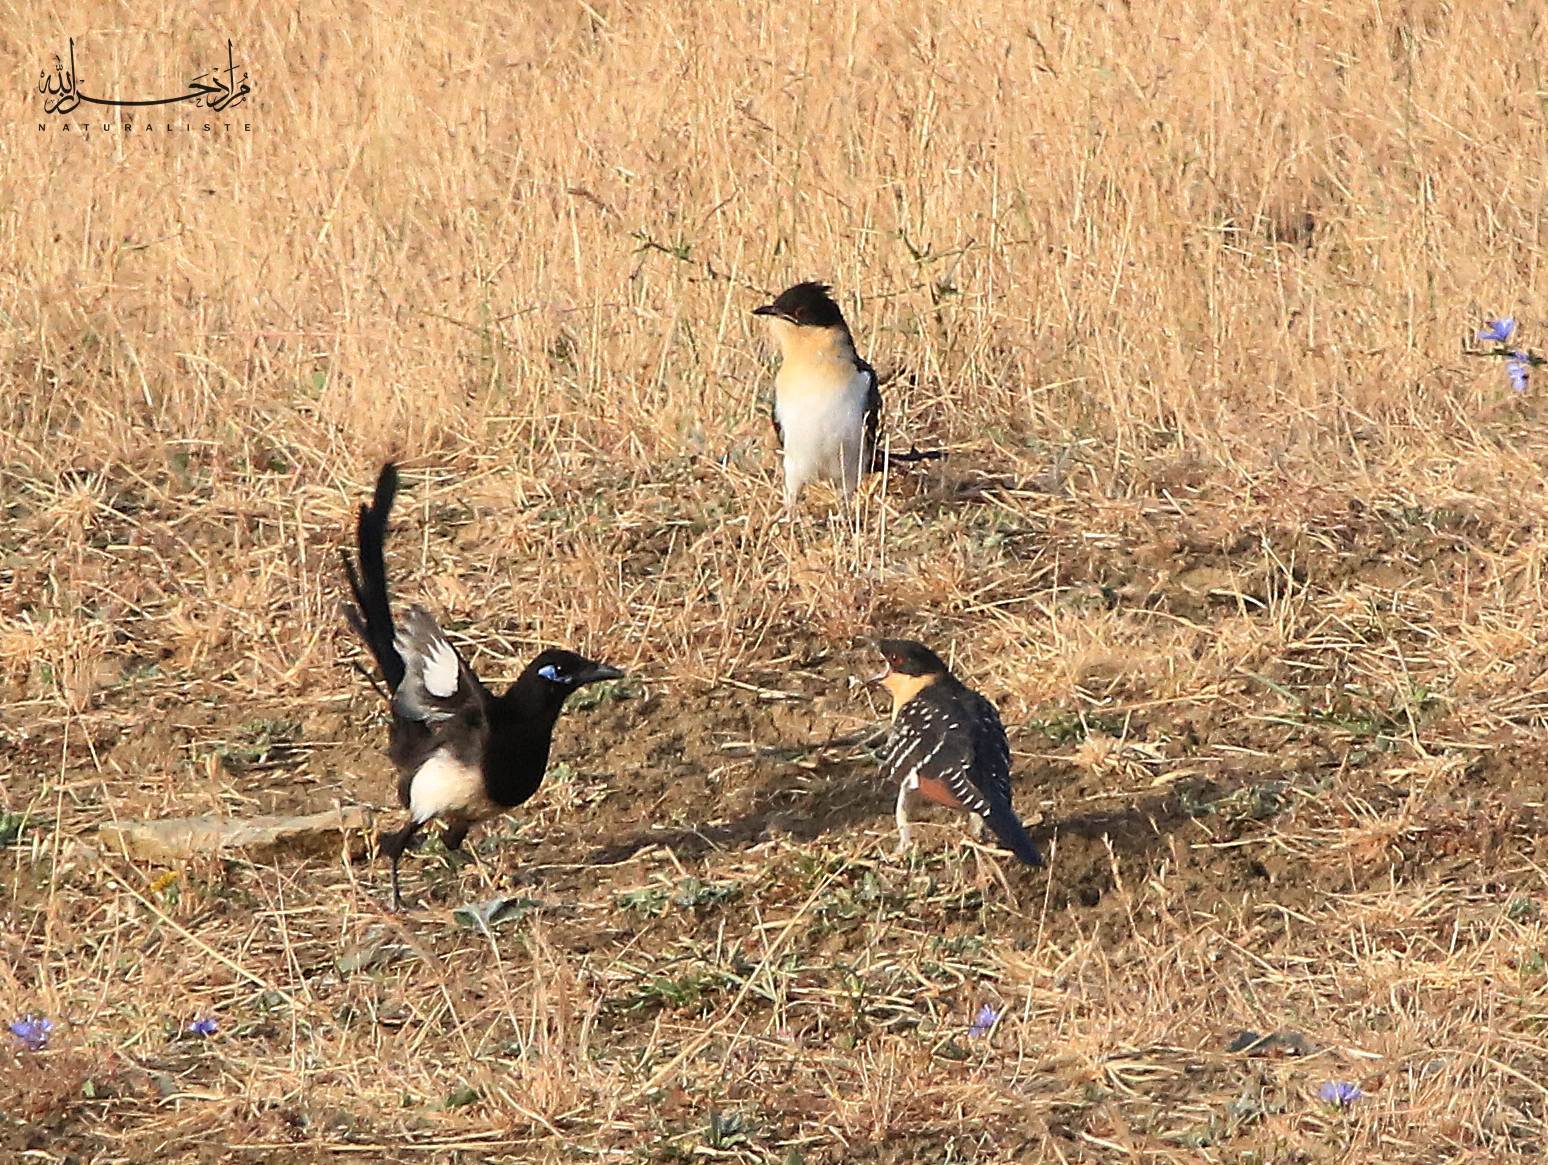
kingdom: Animalia
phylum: Chordata
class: Aves
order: Cuculiformes
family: Cuculidae
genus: Clamator
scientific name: Clamator glandarius
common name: Great spotted cuckoo
